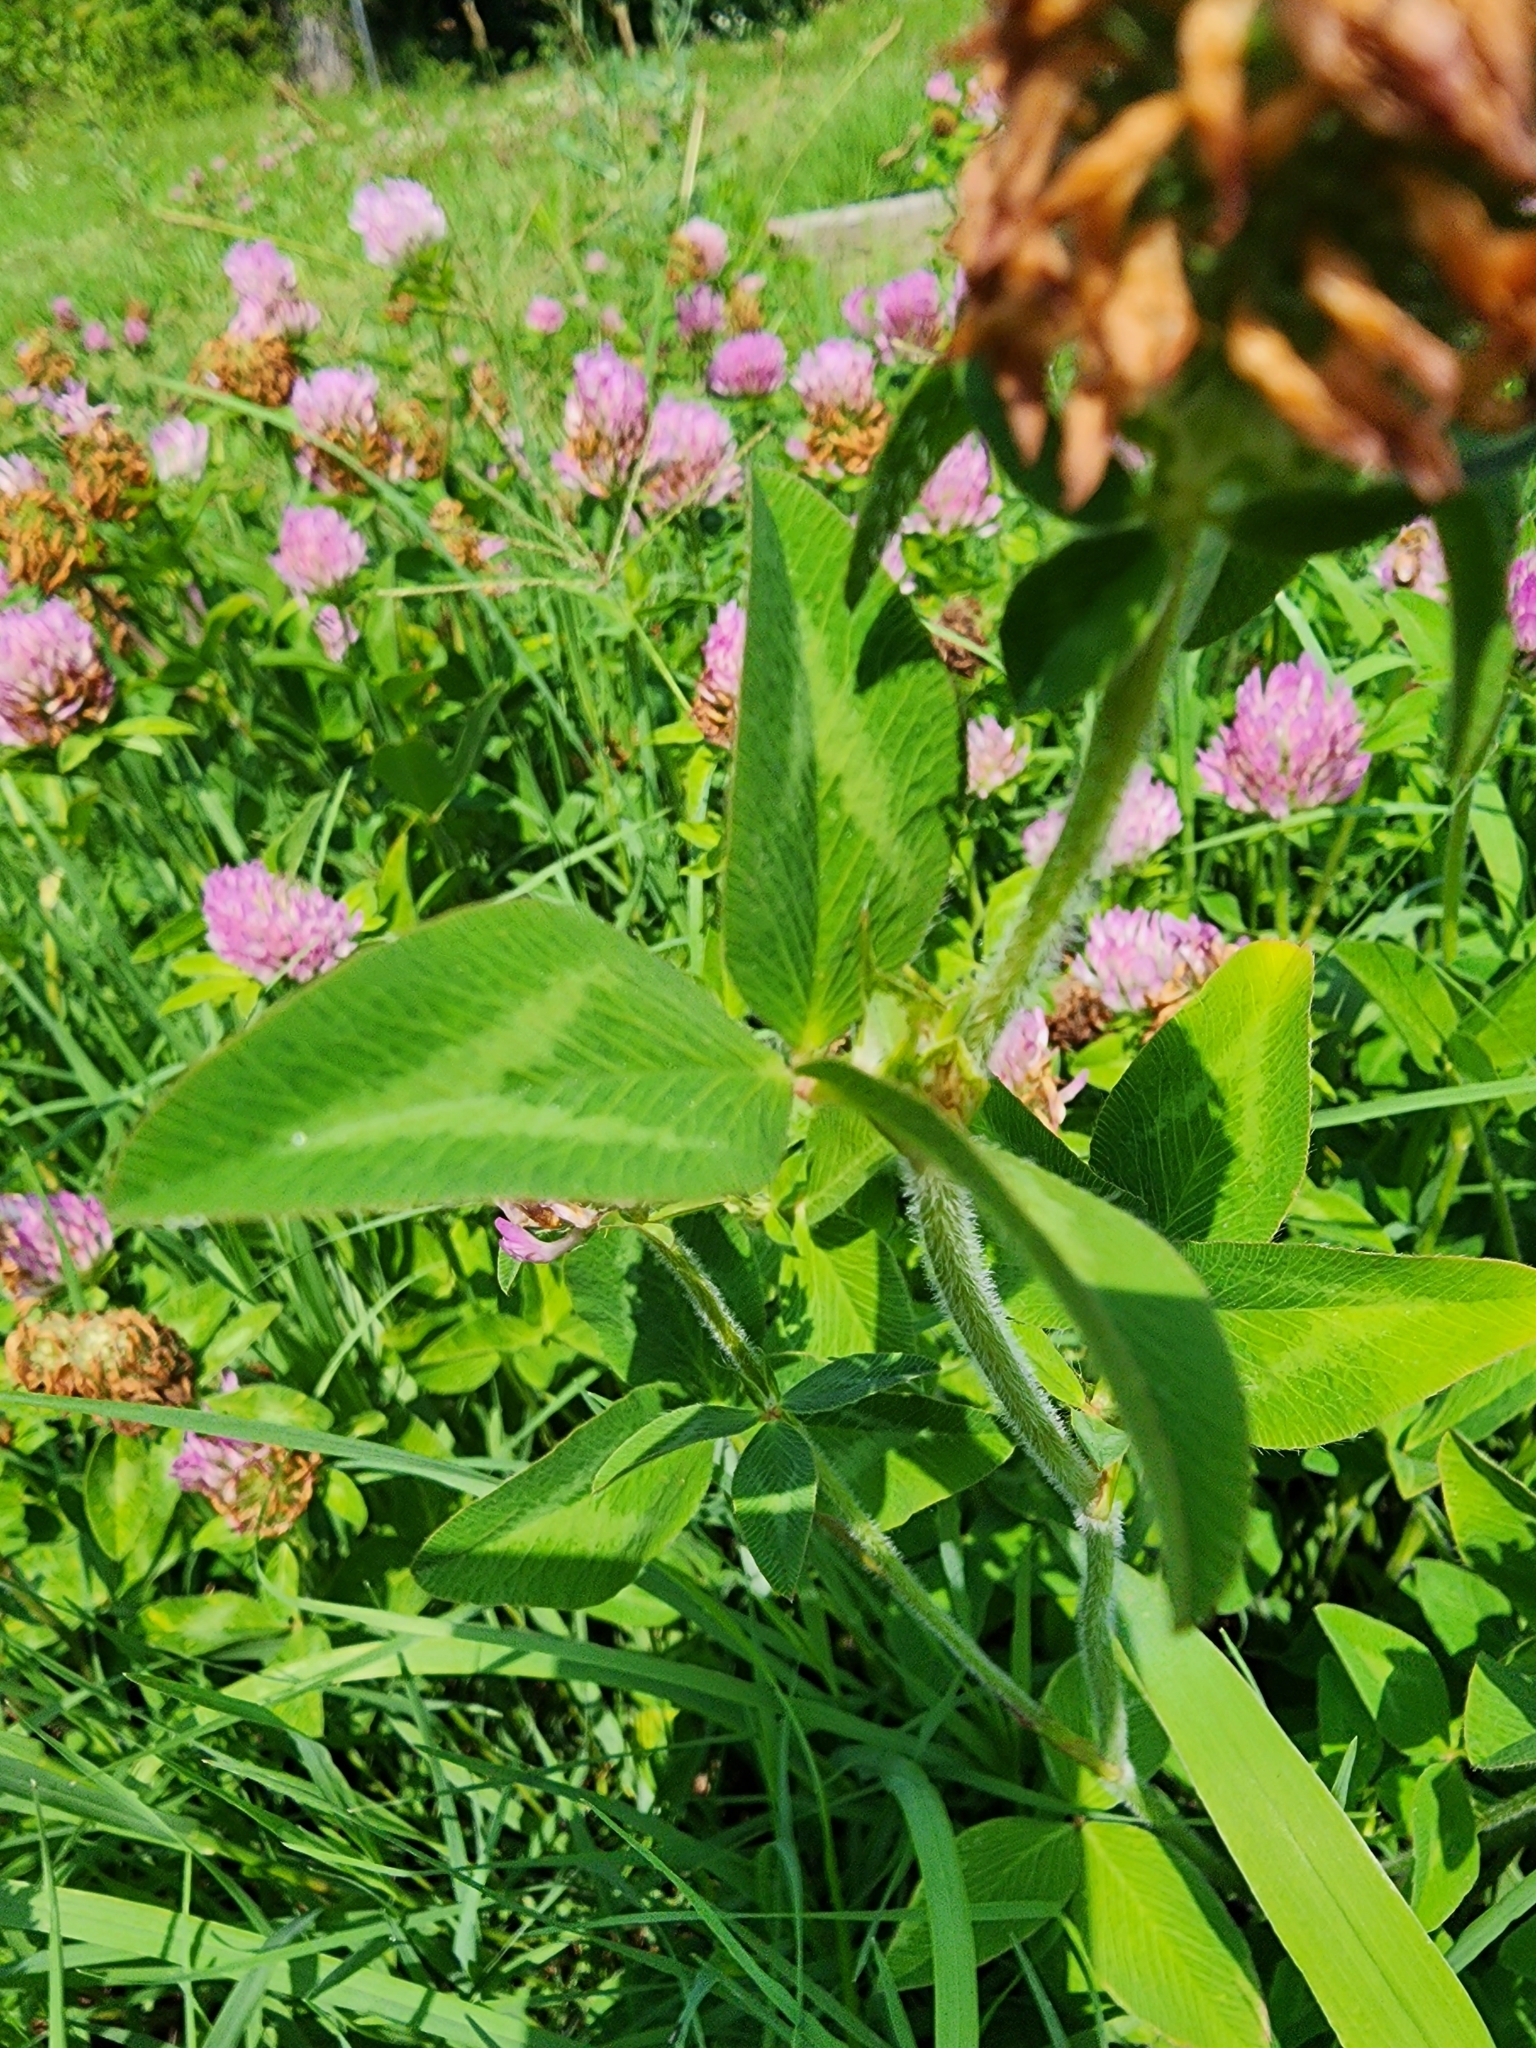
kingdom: Plantae
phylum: Tracheophyta
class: Magnoliopsida
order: Fabales
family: Fabaceae
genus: Trifolium
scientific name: Trifolium pratense
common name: Red clover
